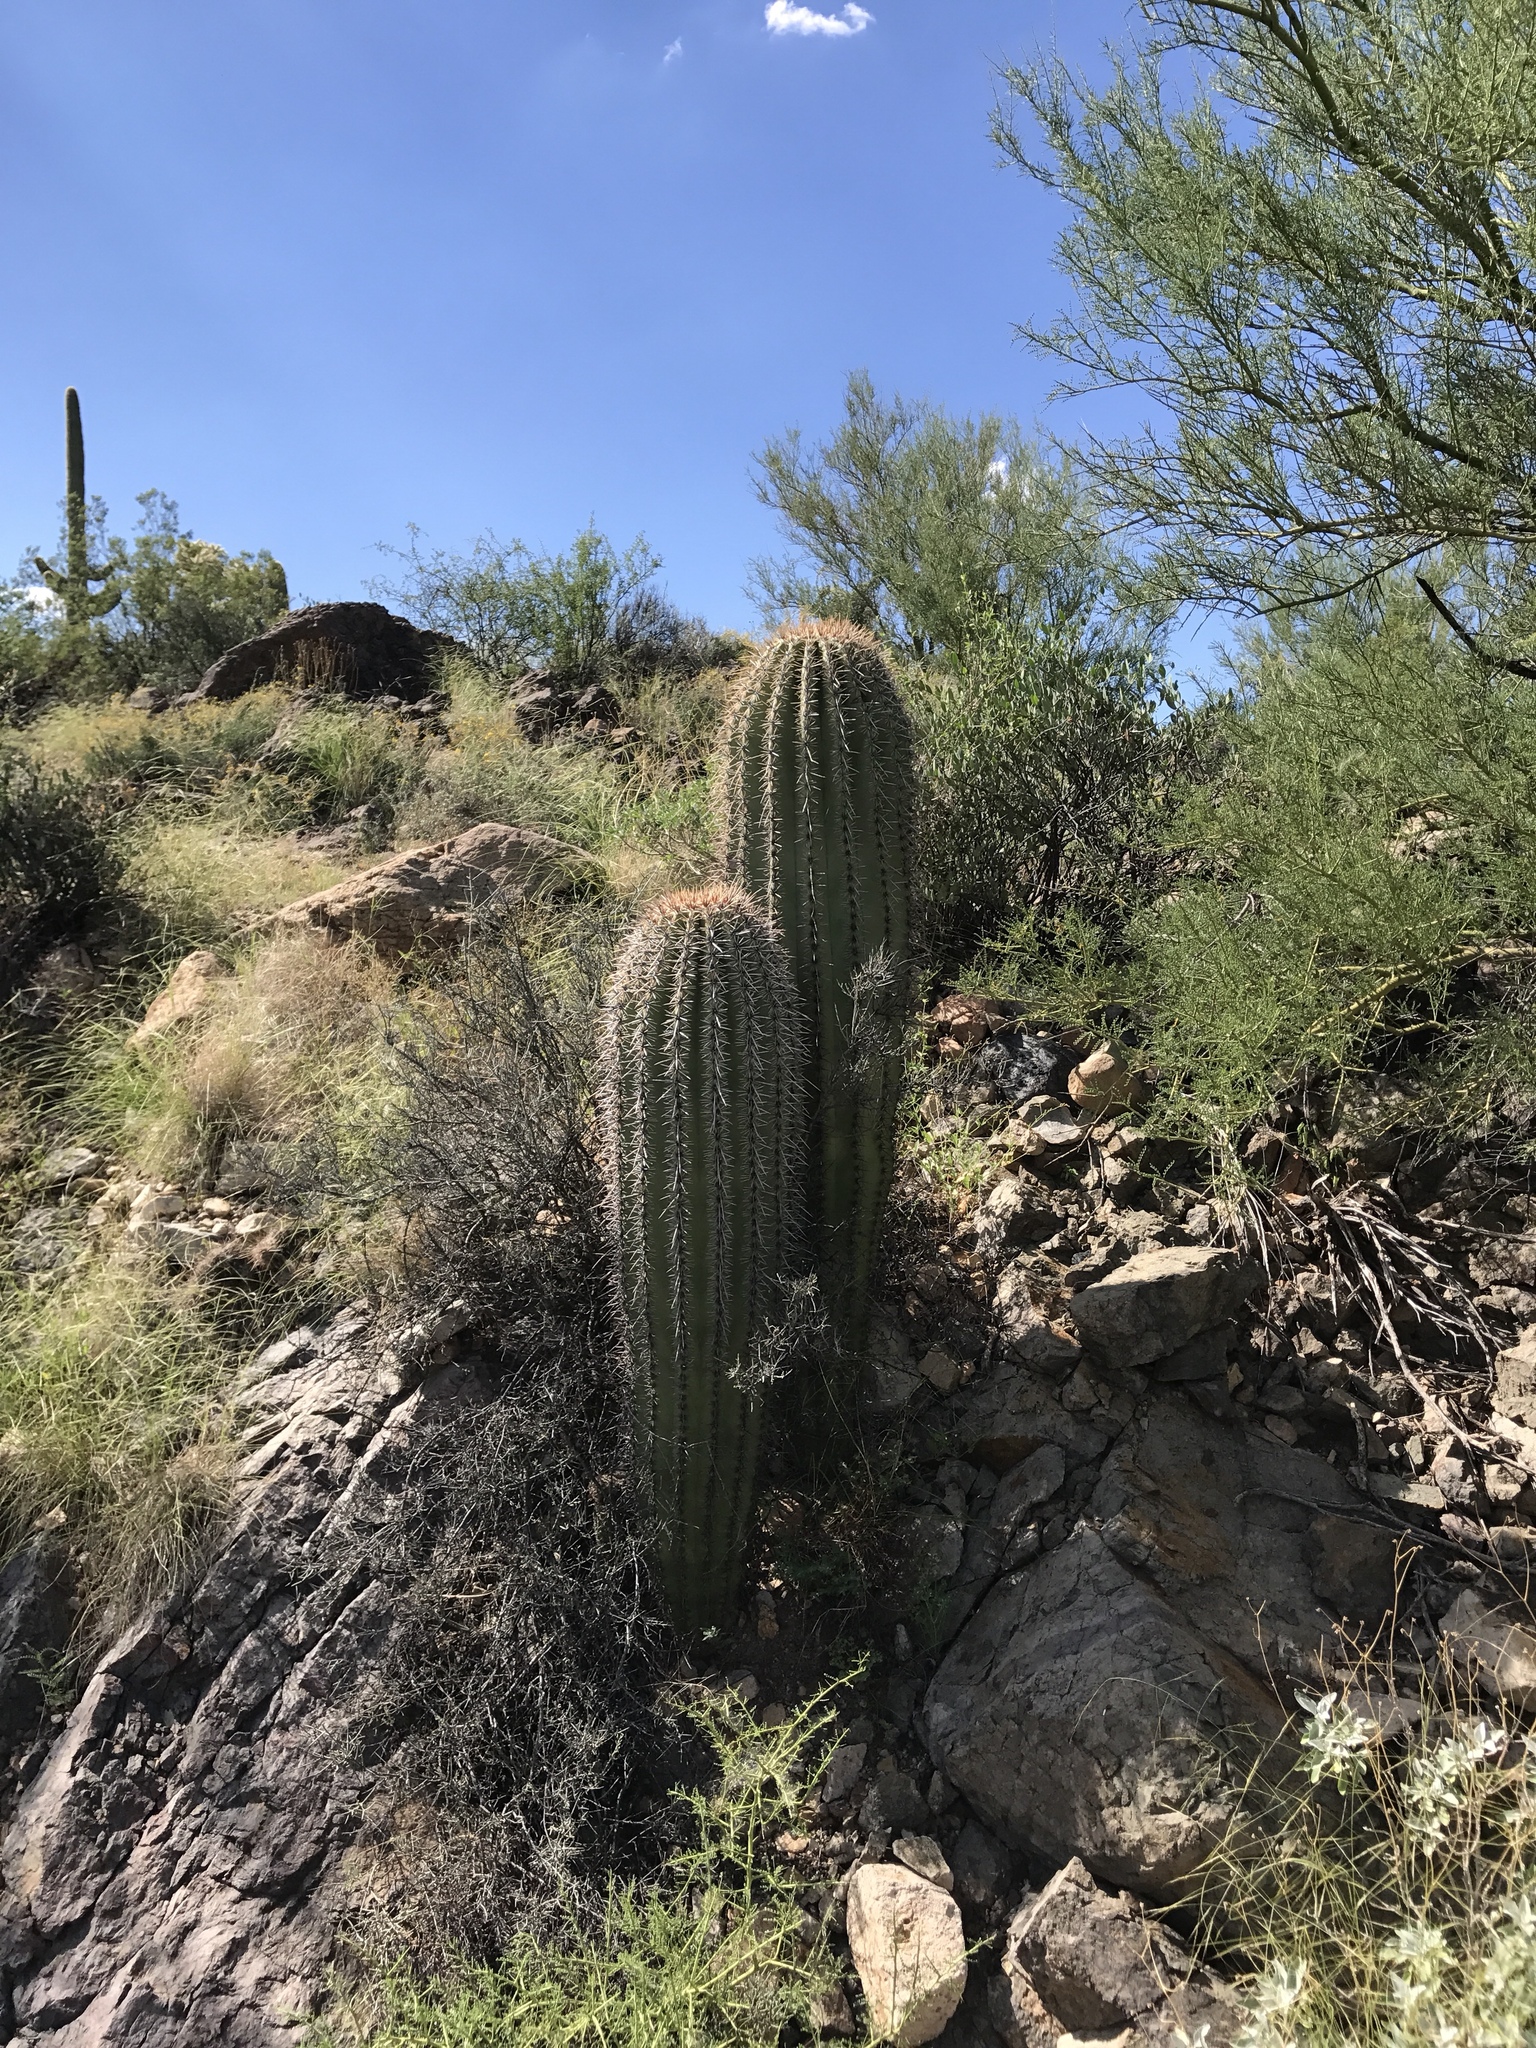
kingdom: Plantae
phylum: Tracheophyta
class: Magnoliopsida
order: Caryophyllales
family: Cactaceae
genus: Carnegiea
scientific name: Carnegiea gigantea
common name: Saguaro
